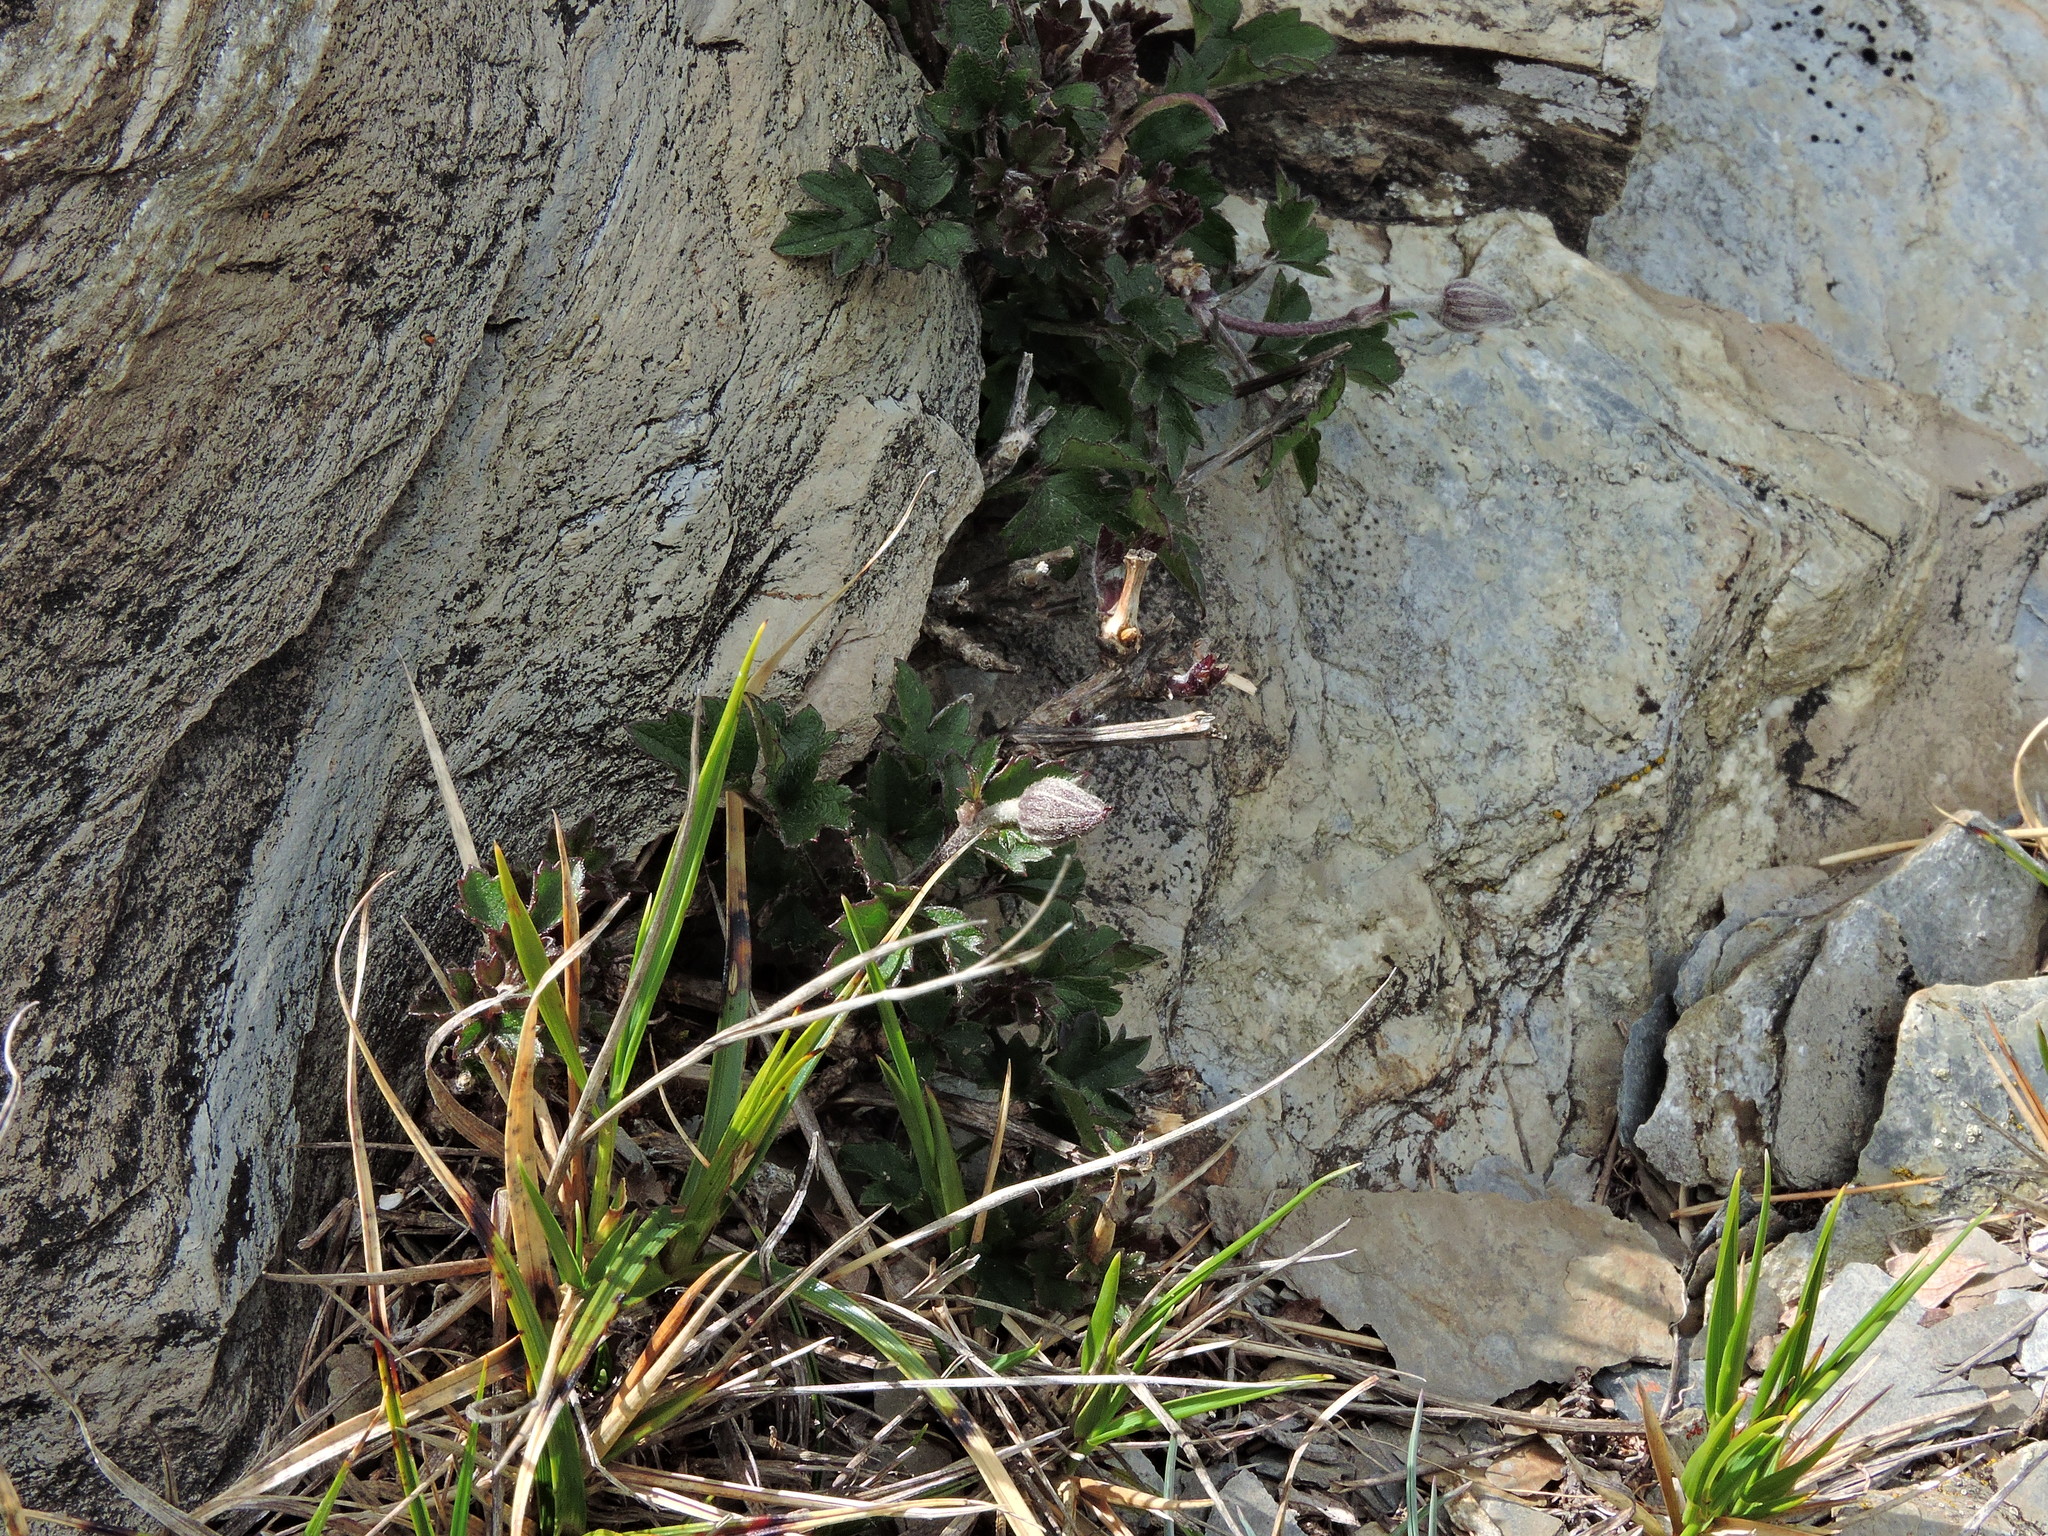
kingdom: Plantae
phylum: Tracheophyta
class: Magnoliopsida
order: Ranunculales
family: Ranunculaceae
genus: Clematis
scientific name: Clematis tsugetorum
